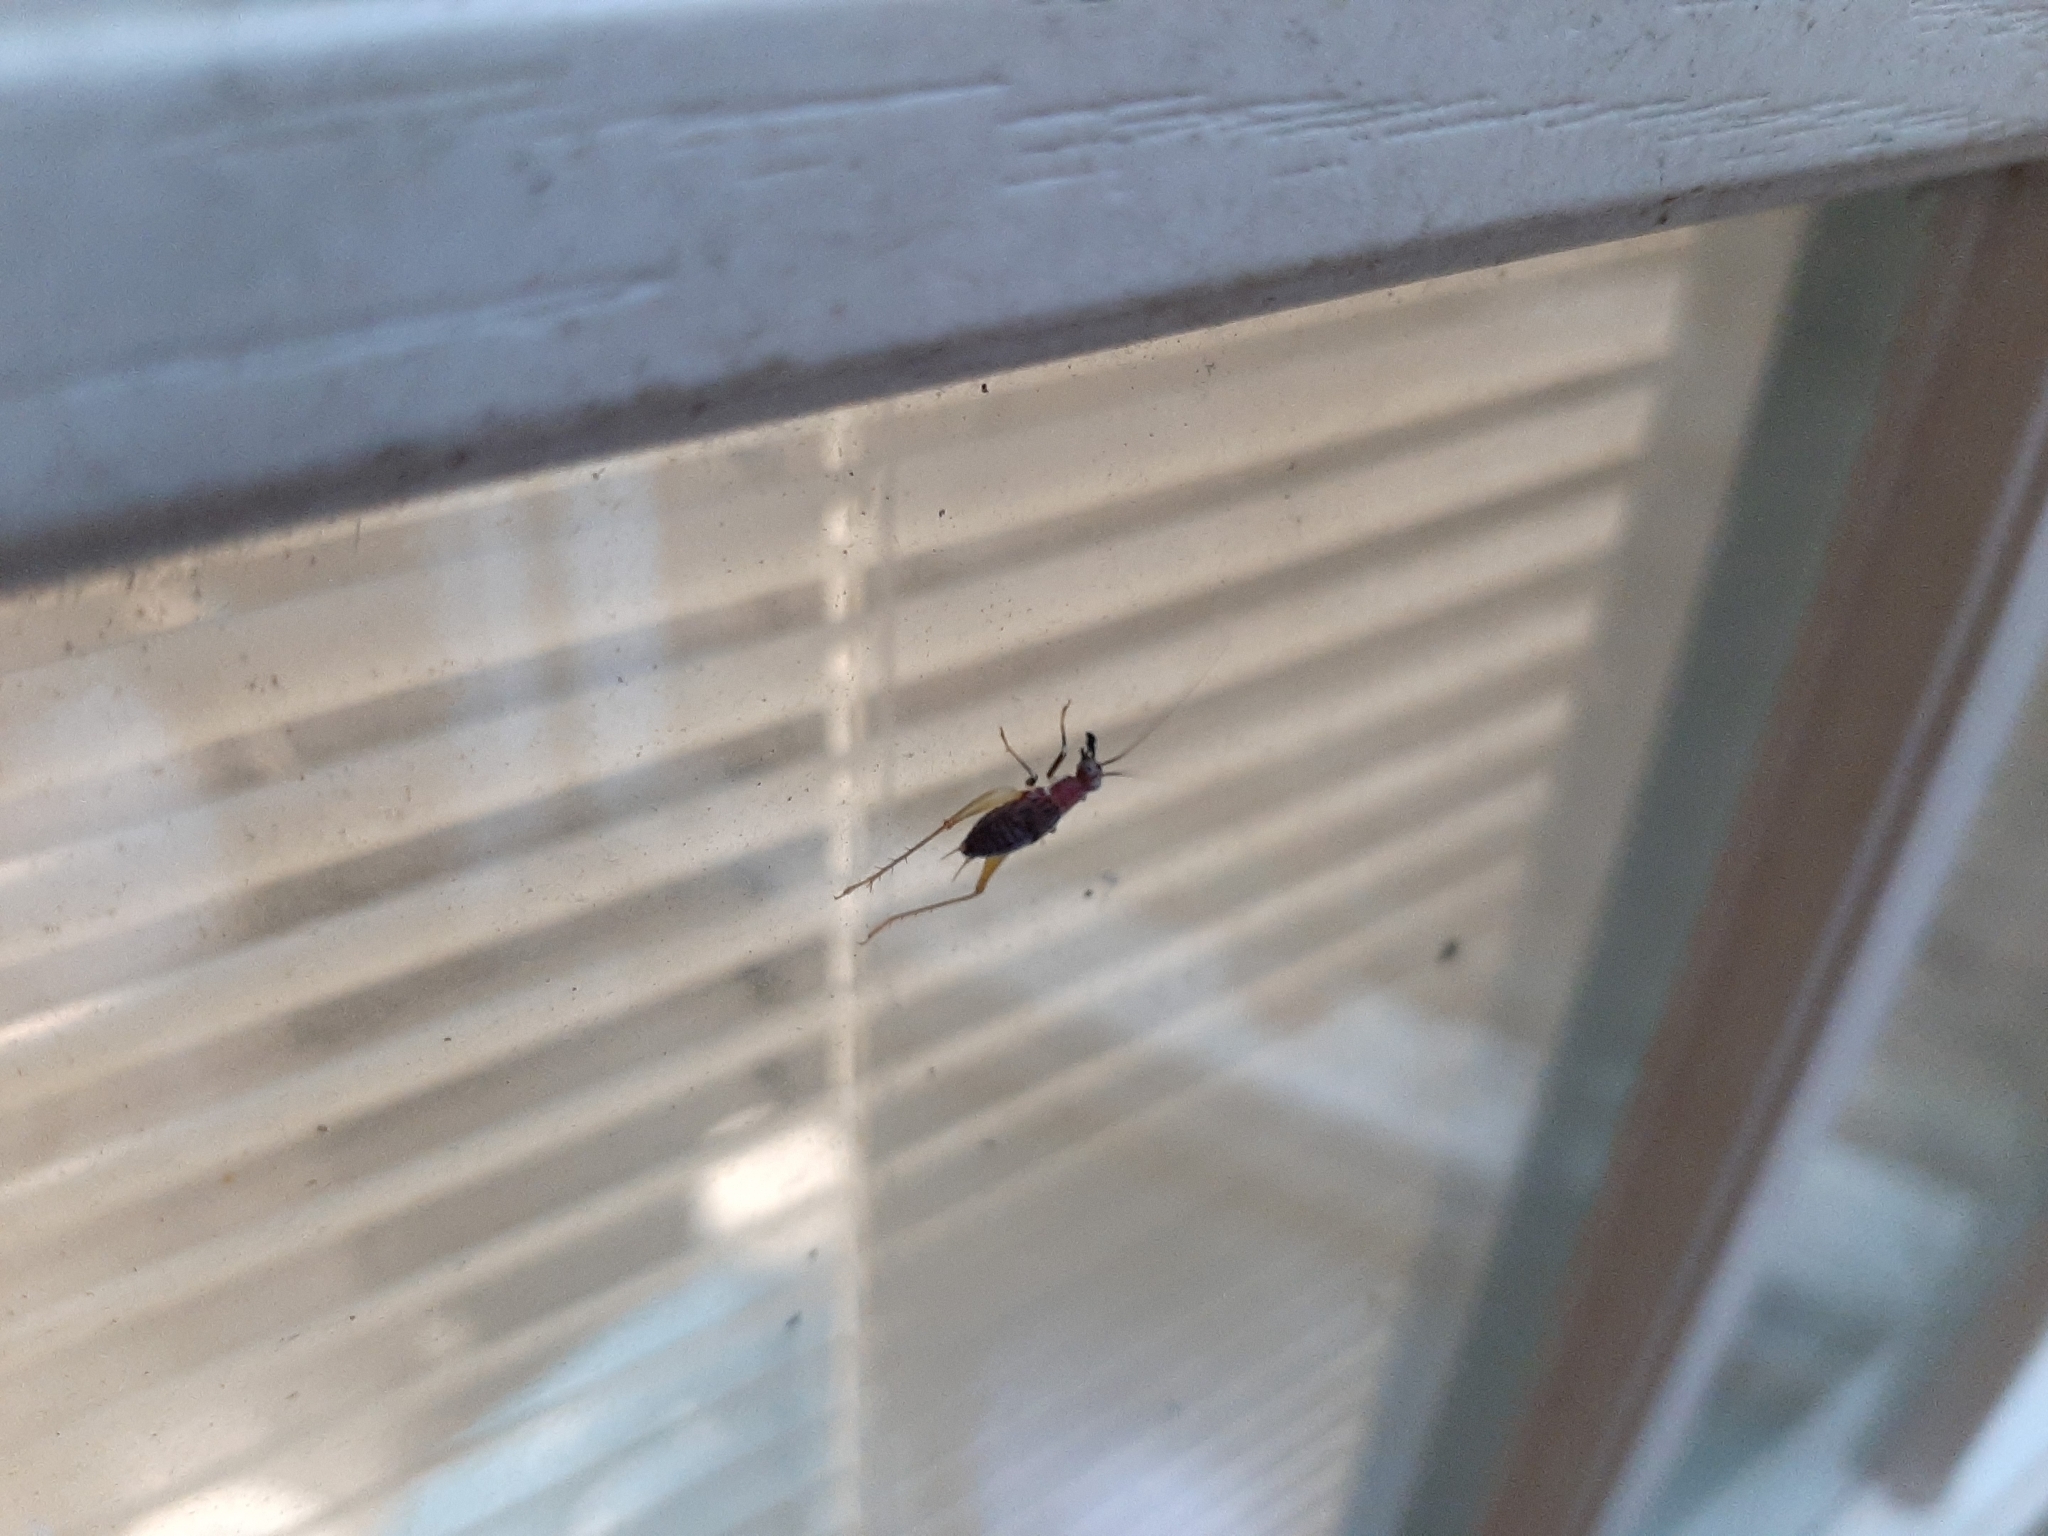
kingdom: Animalia
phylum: Arthropoda
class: Insecta
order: Orthoptera
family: Trigonidiidae
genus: Phyllopalpus
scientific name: Phyllopalpus pulchellus
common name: Handsome trig
